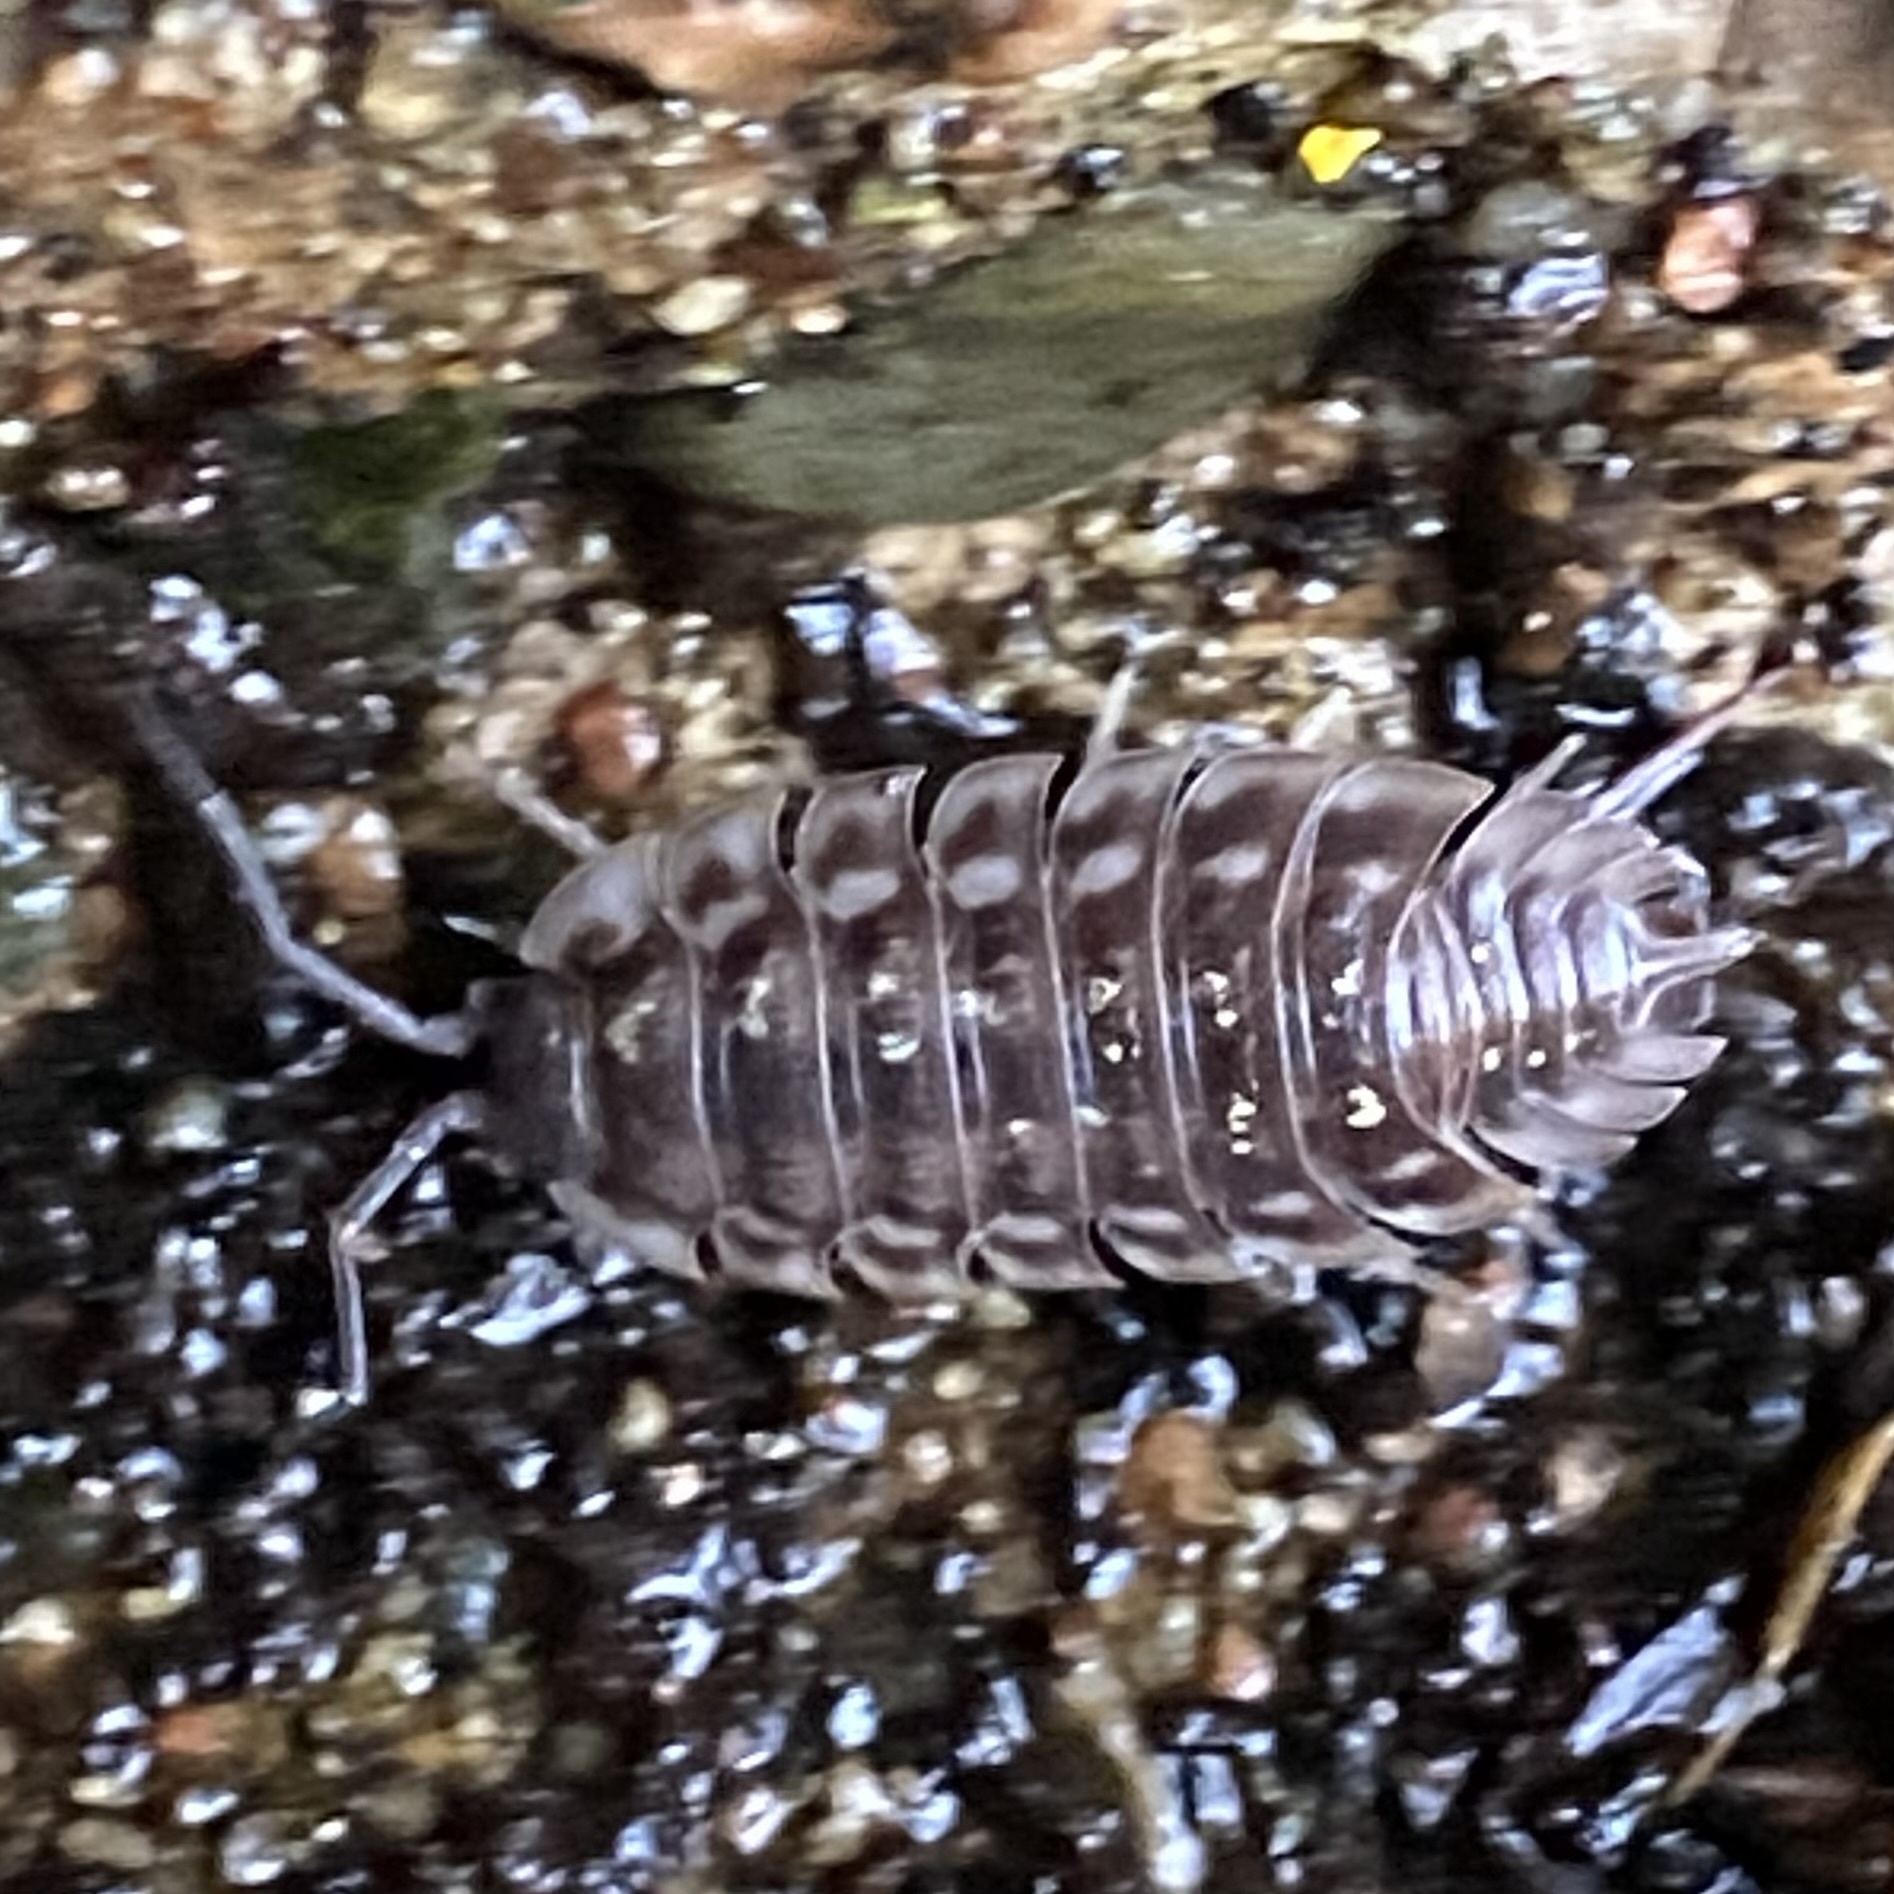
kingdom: Animalia
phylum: Arthropoda
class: Malacostraca
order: Isopoda
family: Oniscidae
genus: Oniscus
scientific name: Oniscus asellus
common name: Common shiny woodlouse
